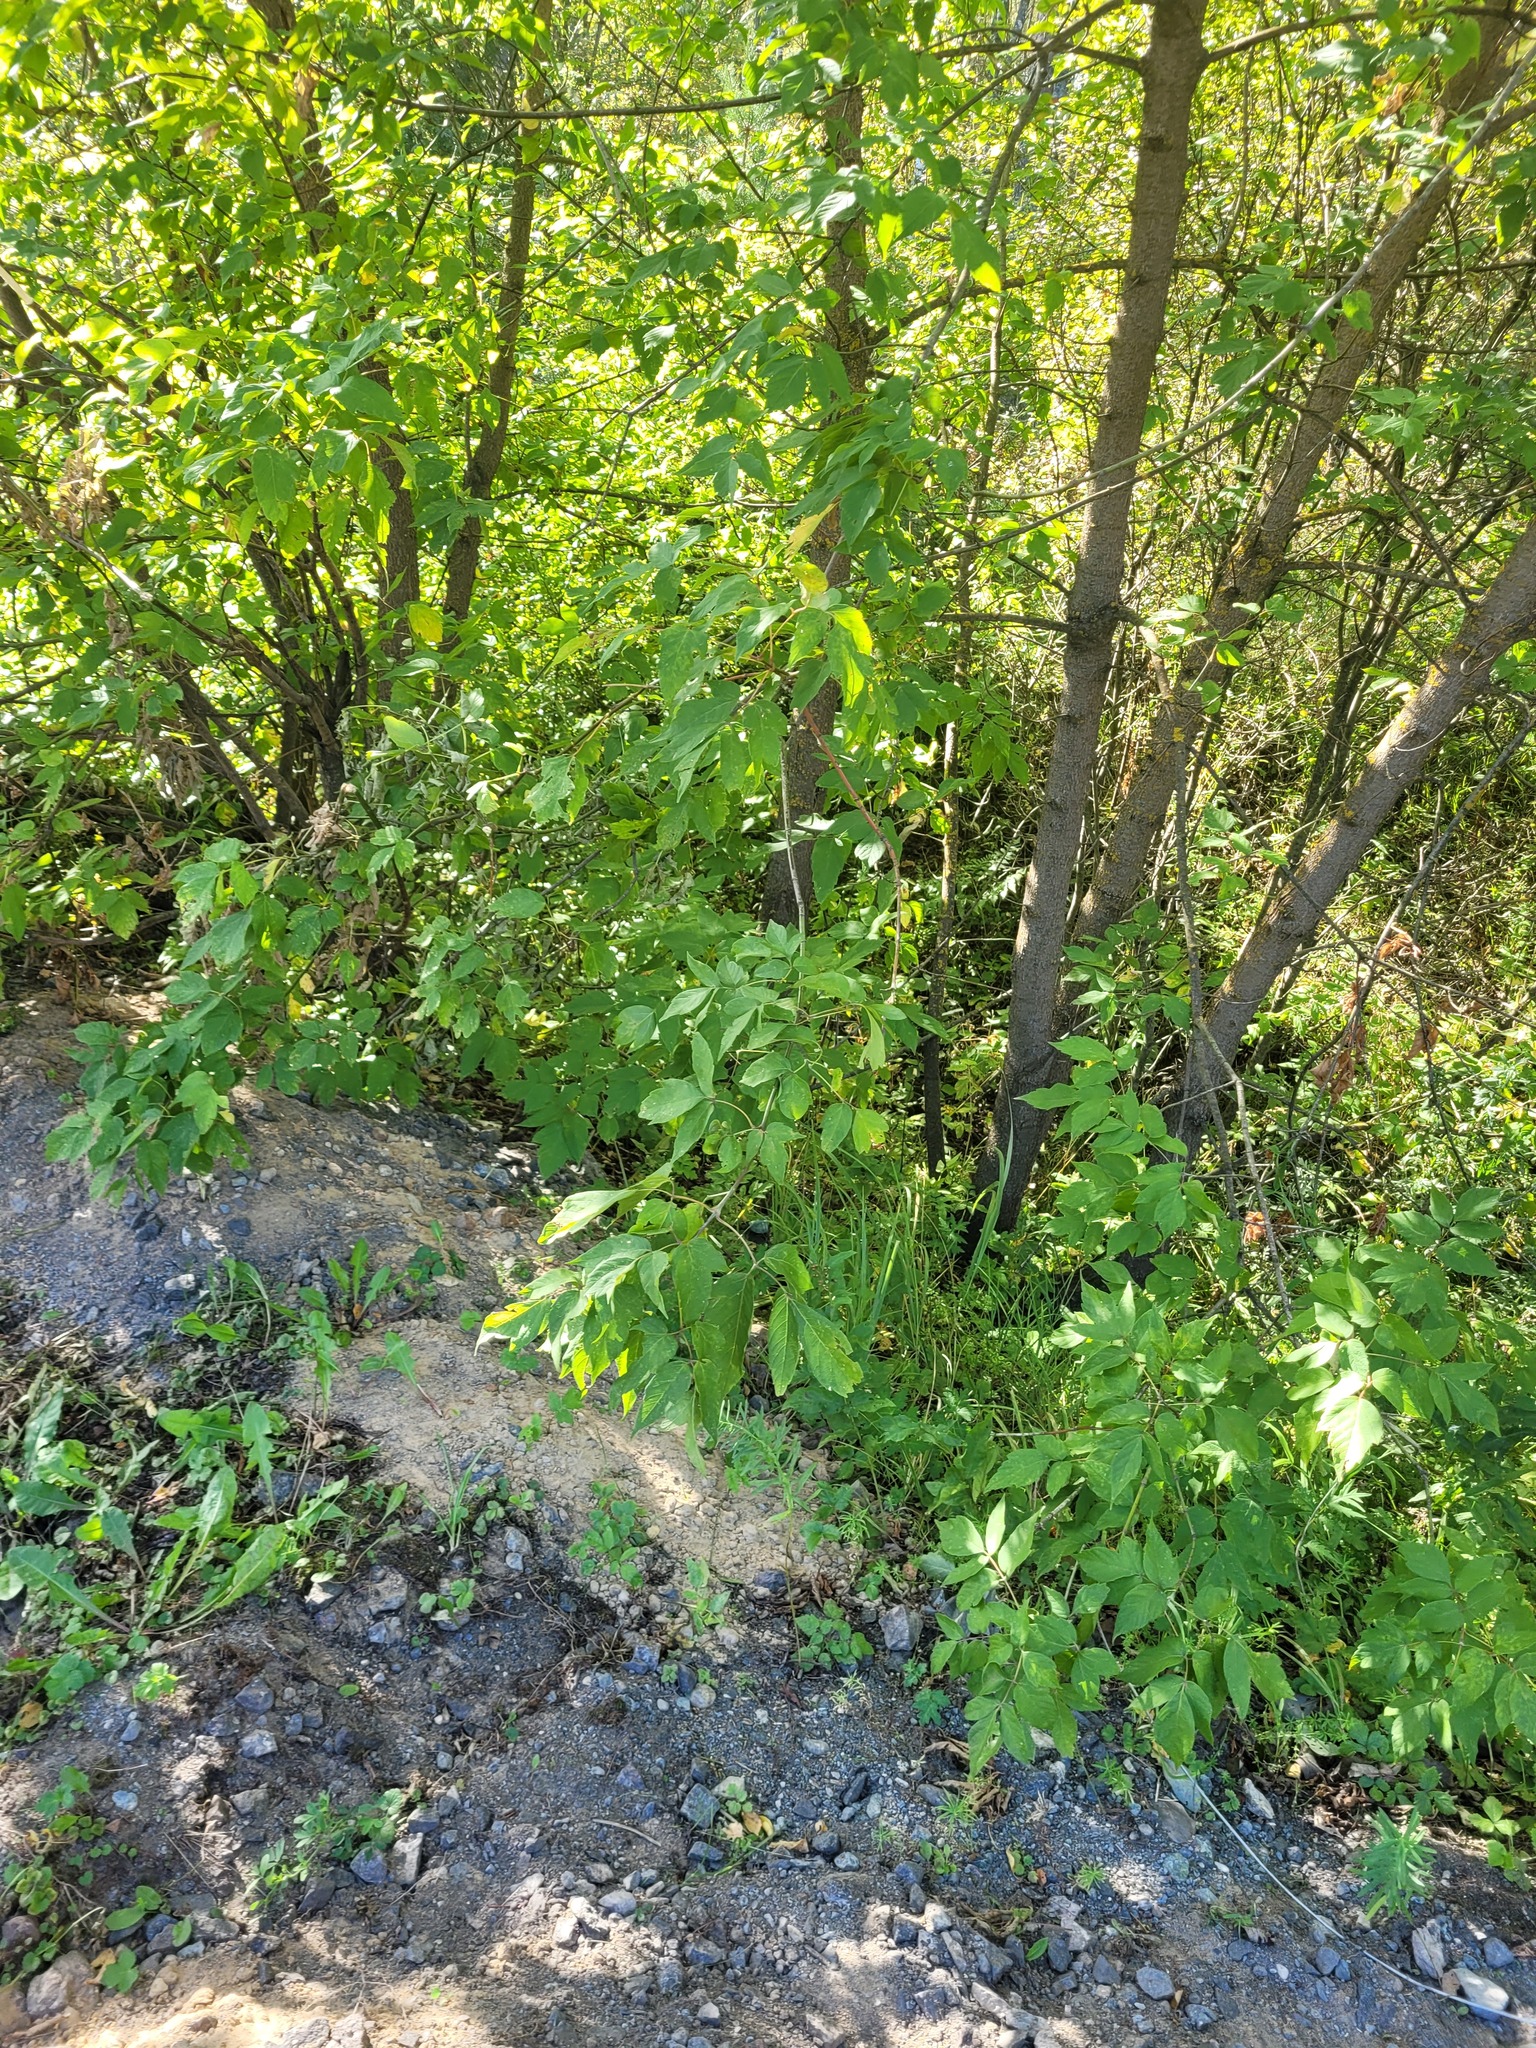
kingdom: Plantae
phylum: Tracheophyta
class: Magnoliopsida
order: Sapindales
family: Sapindaceae
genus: Acer
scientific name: Acer negundo
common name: Ashleaf maple
